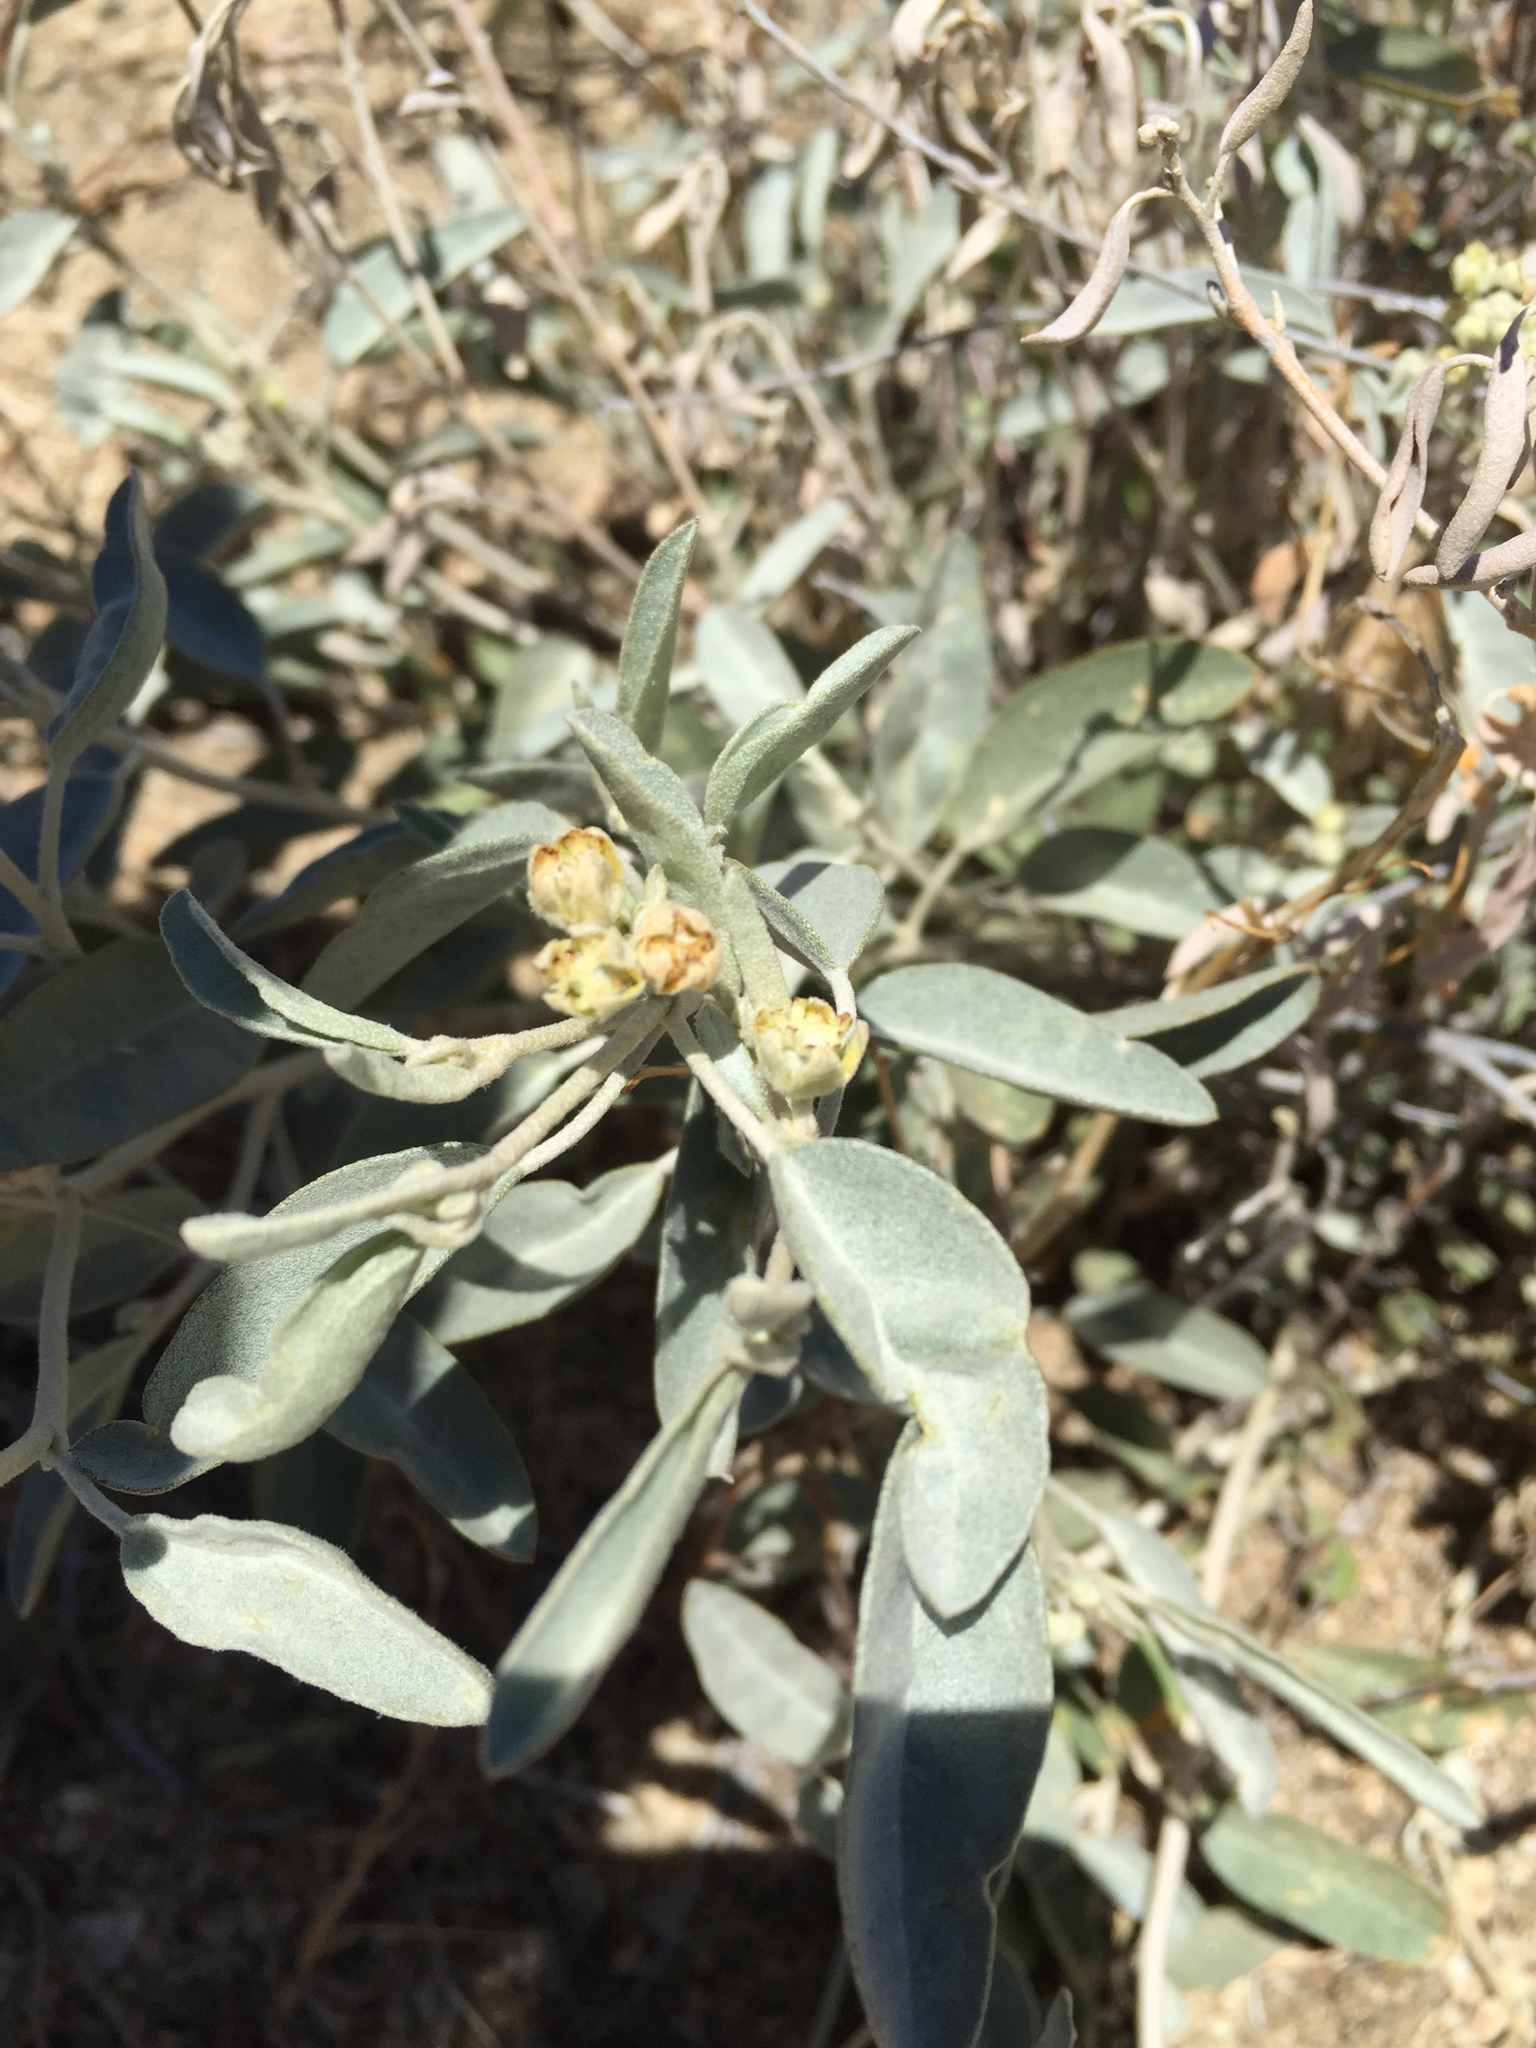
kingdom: Plantae
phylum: Tracheophyta
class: Magnoliopsida
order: Malpighiales
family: Euphorbiaceae
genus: Croton
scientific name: Croton californicus
